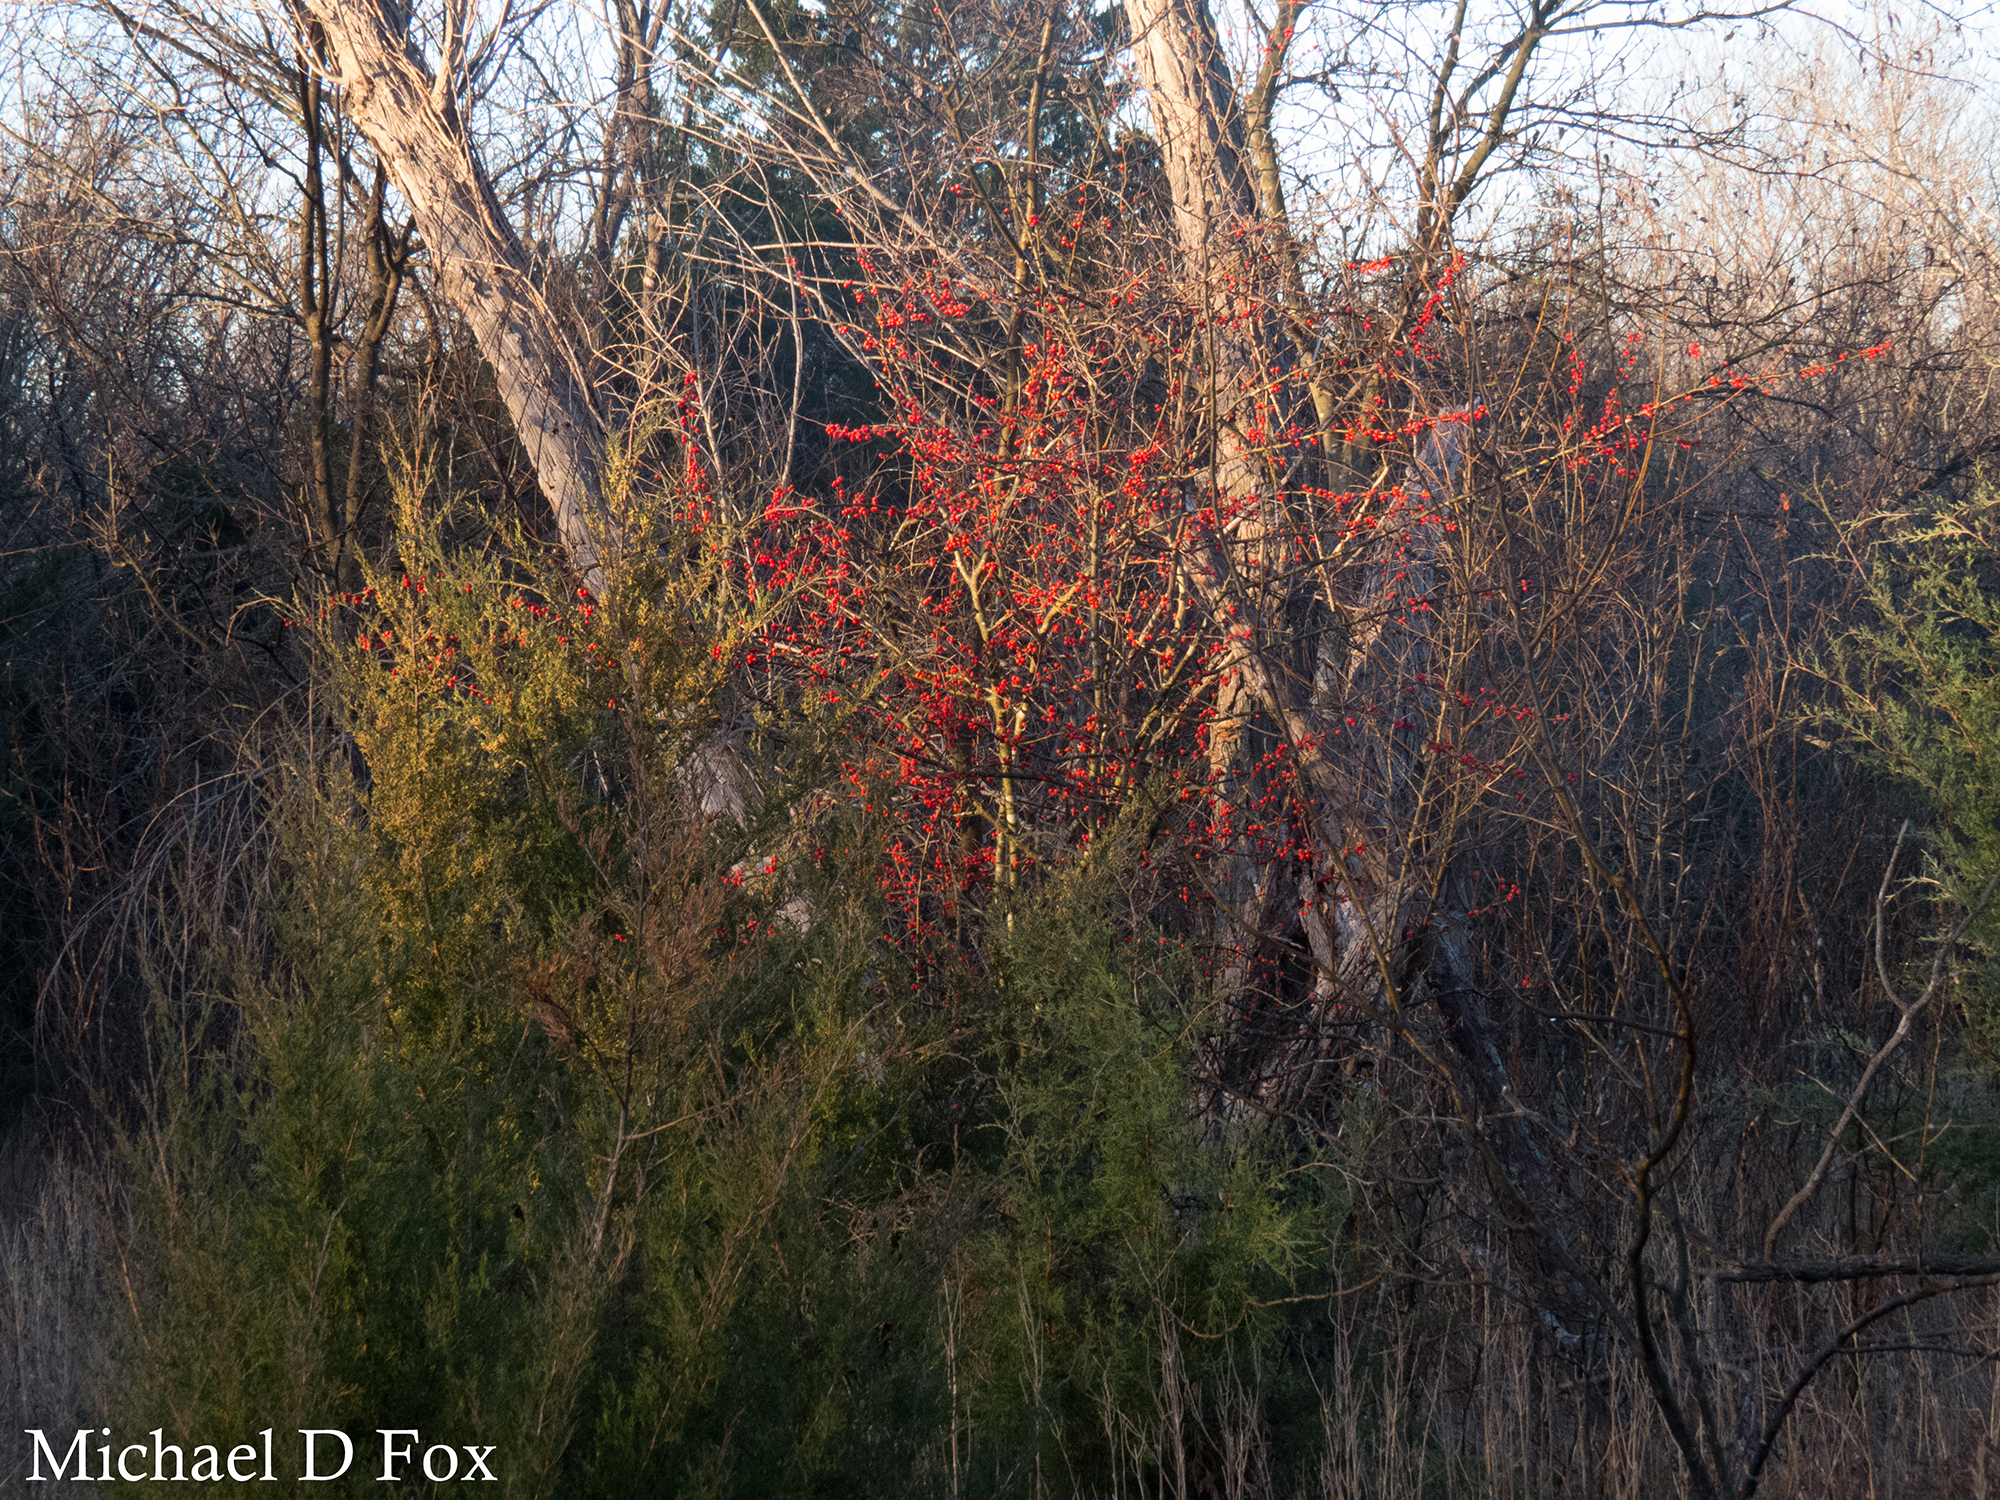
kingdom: Plantae
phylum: Tracheophyta
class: Magnoliopsida
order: Aquifoliales
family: Aquifoliaceae
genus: Ilex
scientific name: Ilex decidua
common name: Possum-haw
